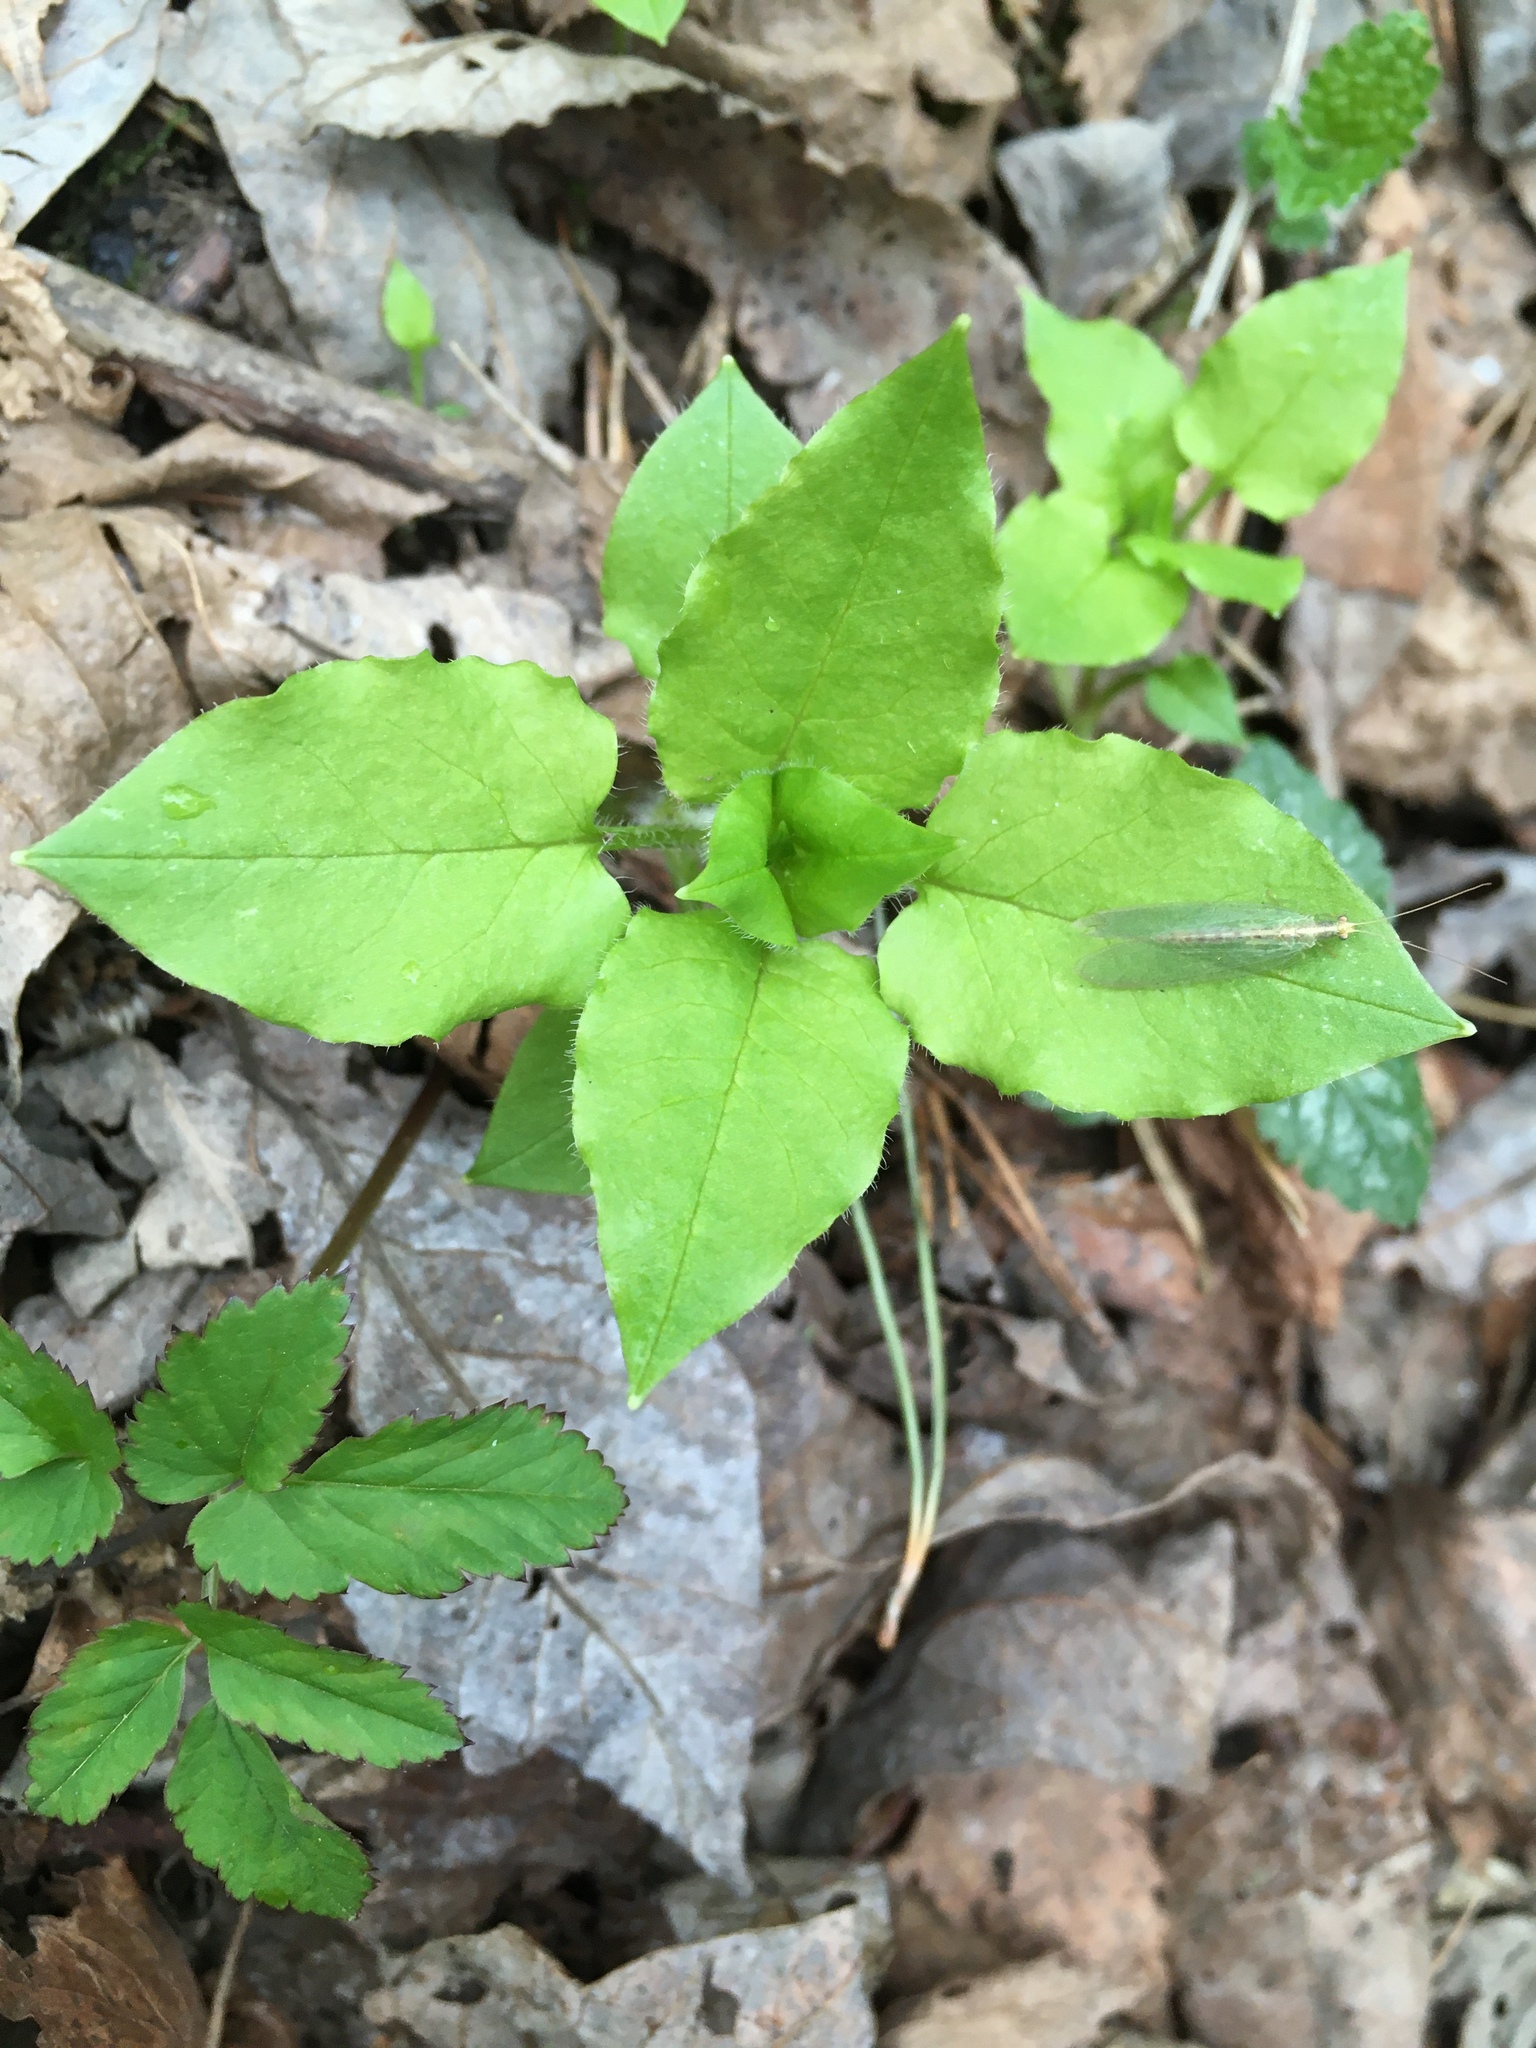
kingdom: Plantae
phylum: Tracheophyta
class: Magnoliopsida
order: Caryophyllales
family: Caryophyllaceae
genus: Stellaria
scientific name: Stellaria nemorum
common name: Wood stitchwort
